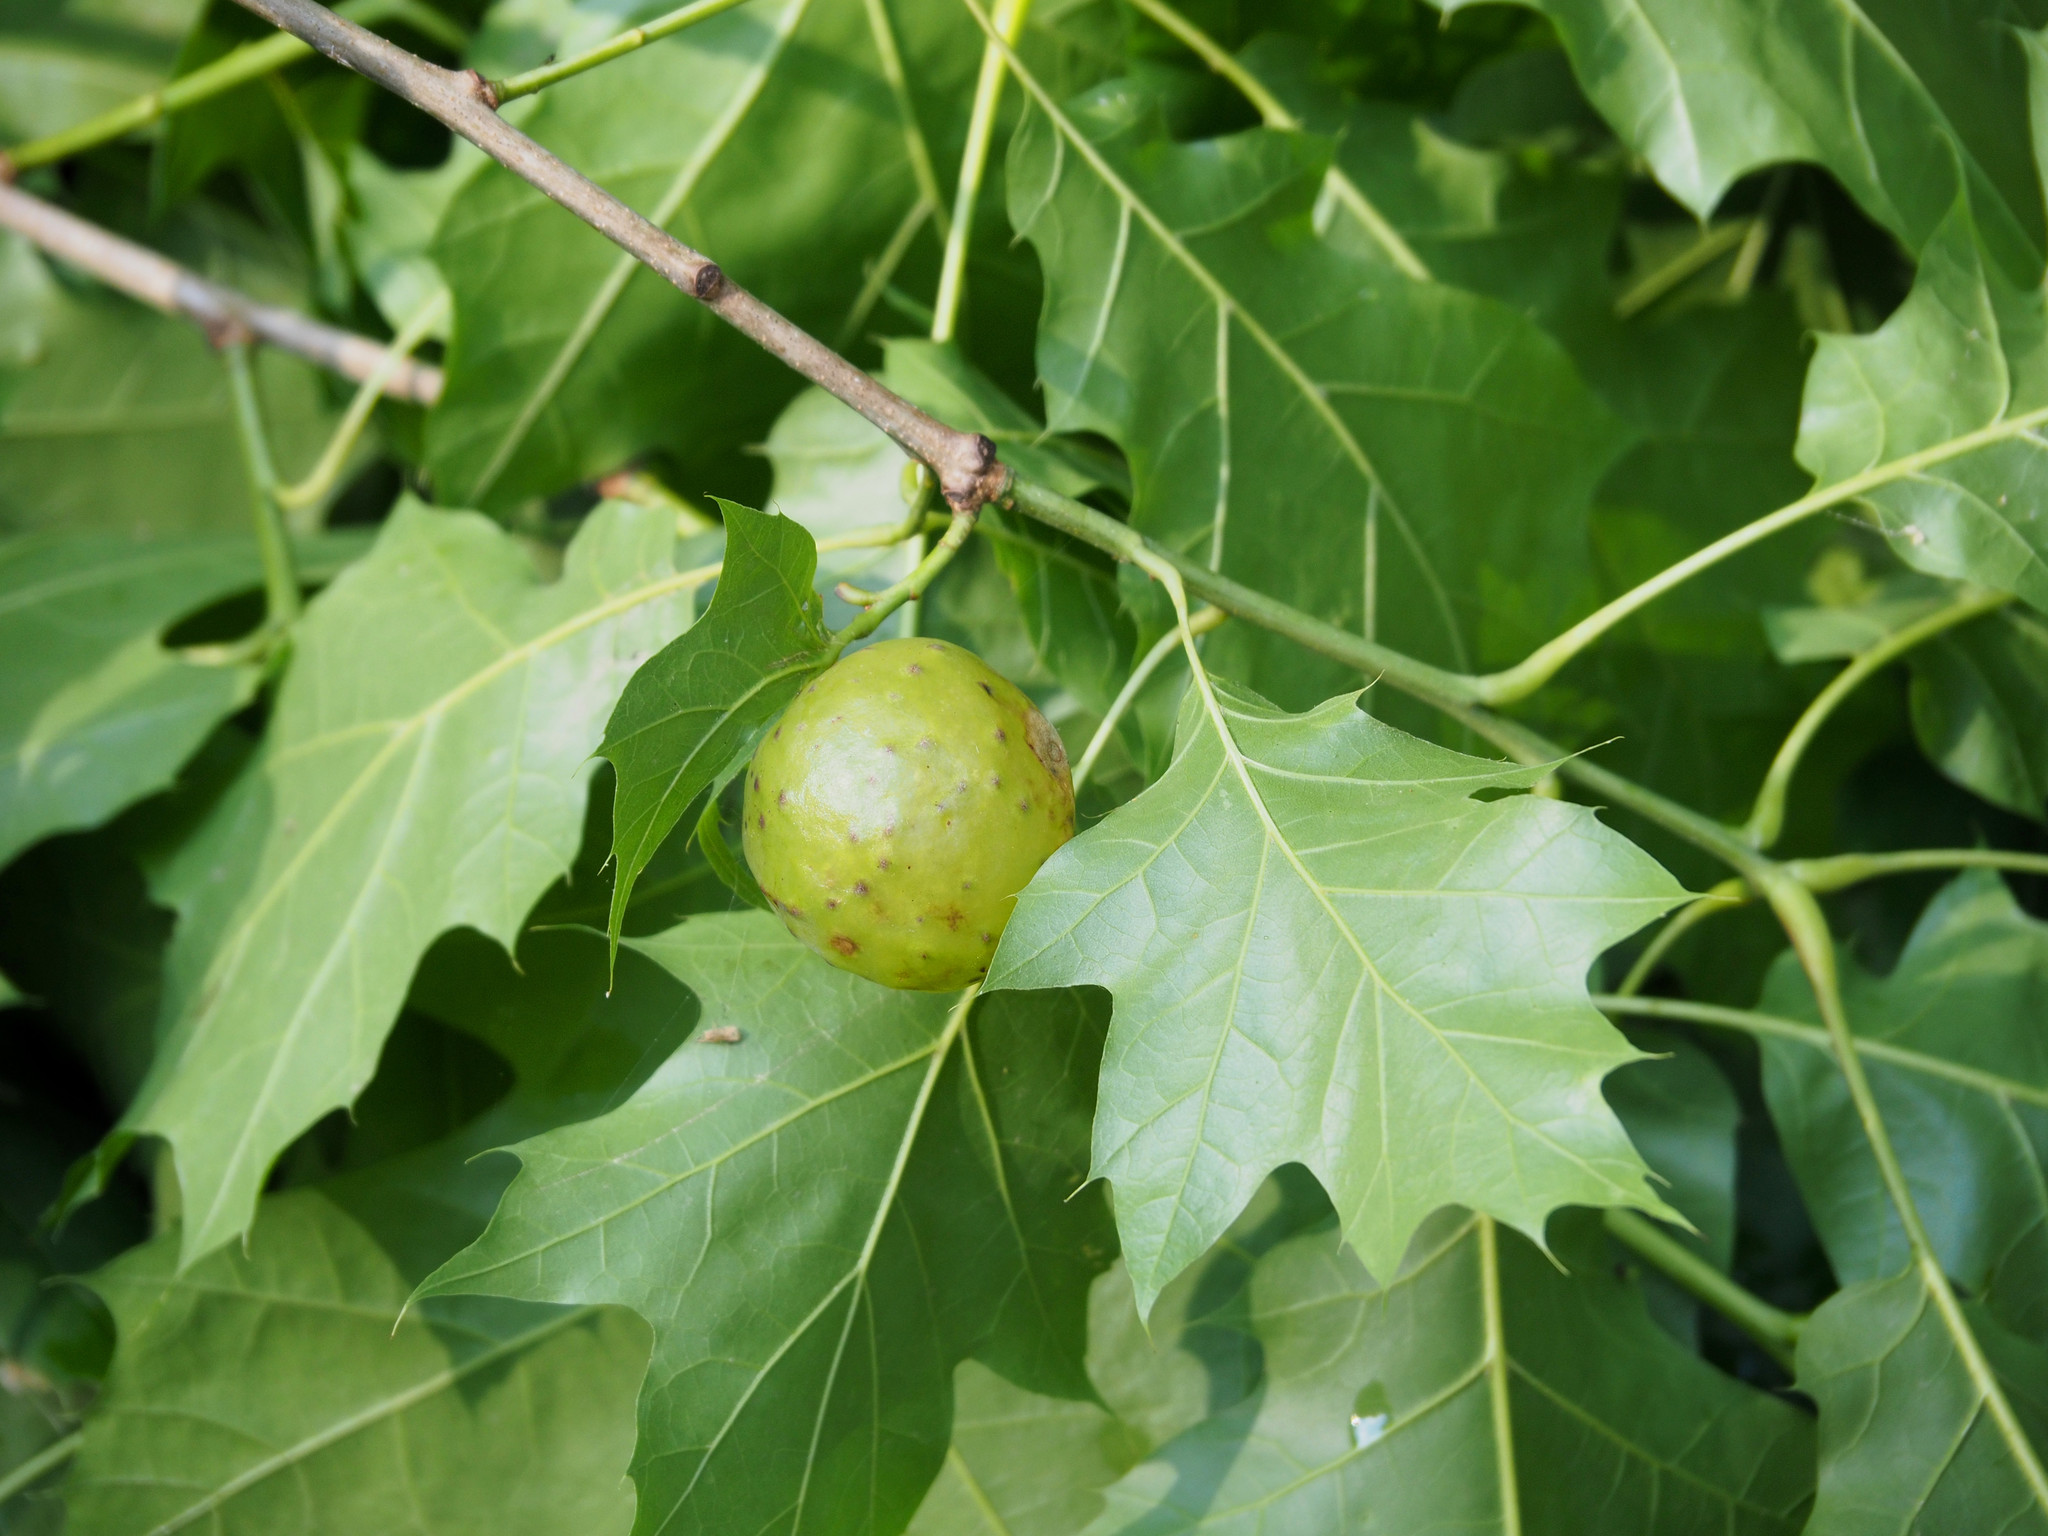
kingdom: Animalia
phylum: Arthropoda
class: Insecta
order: Hymenoptera
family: Cynipidae
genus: Amphibolips
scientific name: Amphibolips
